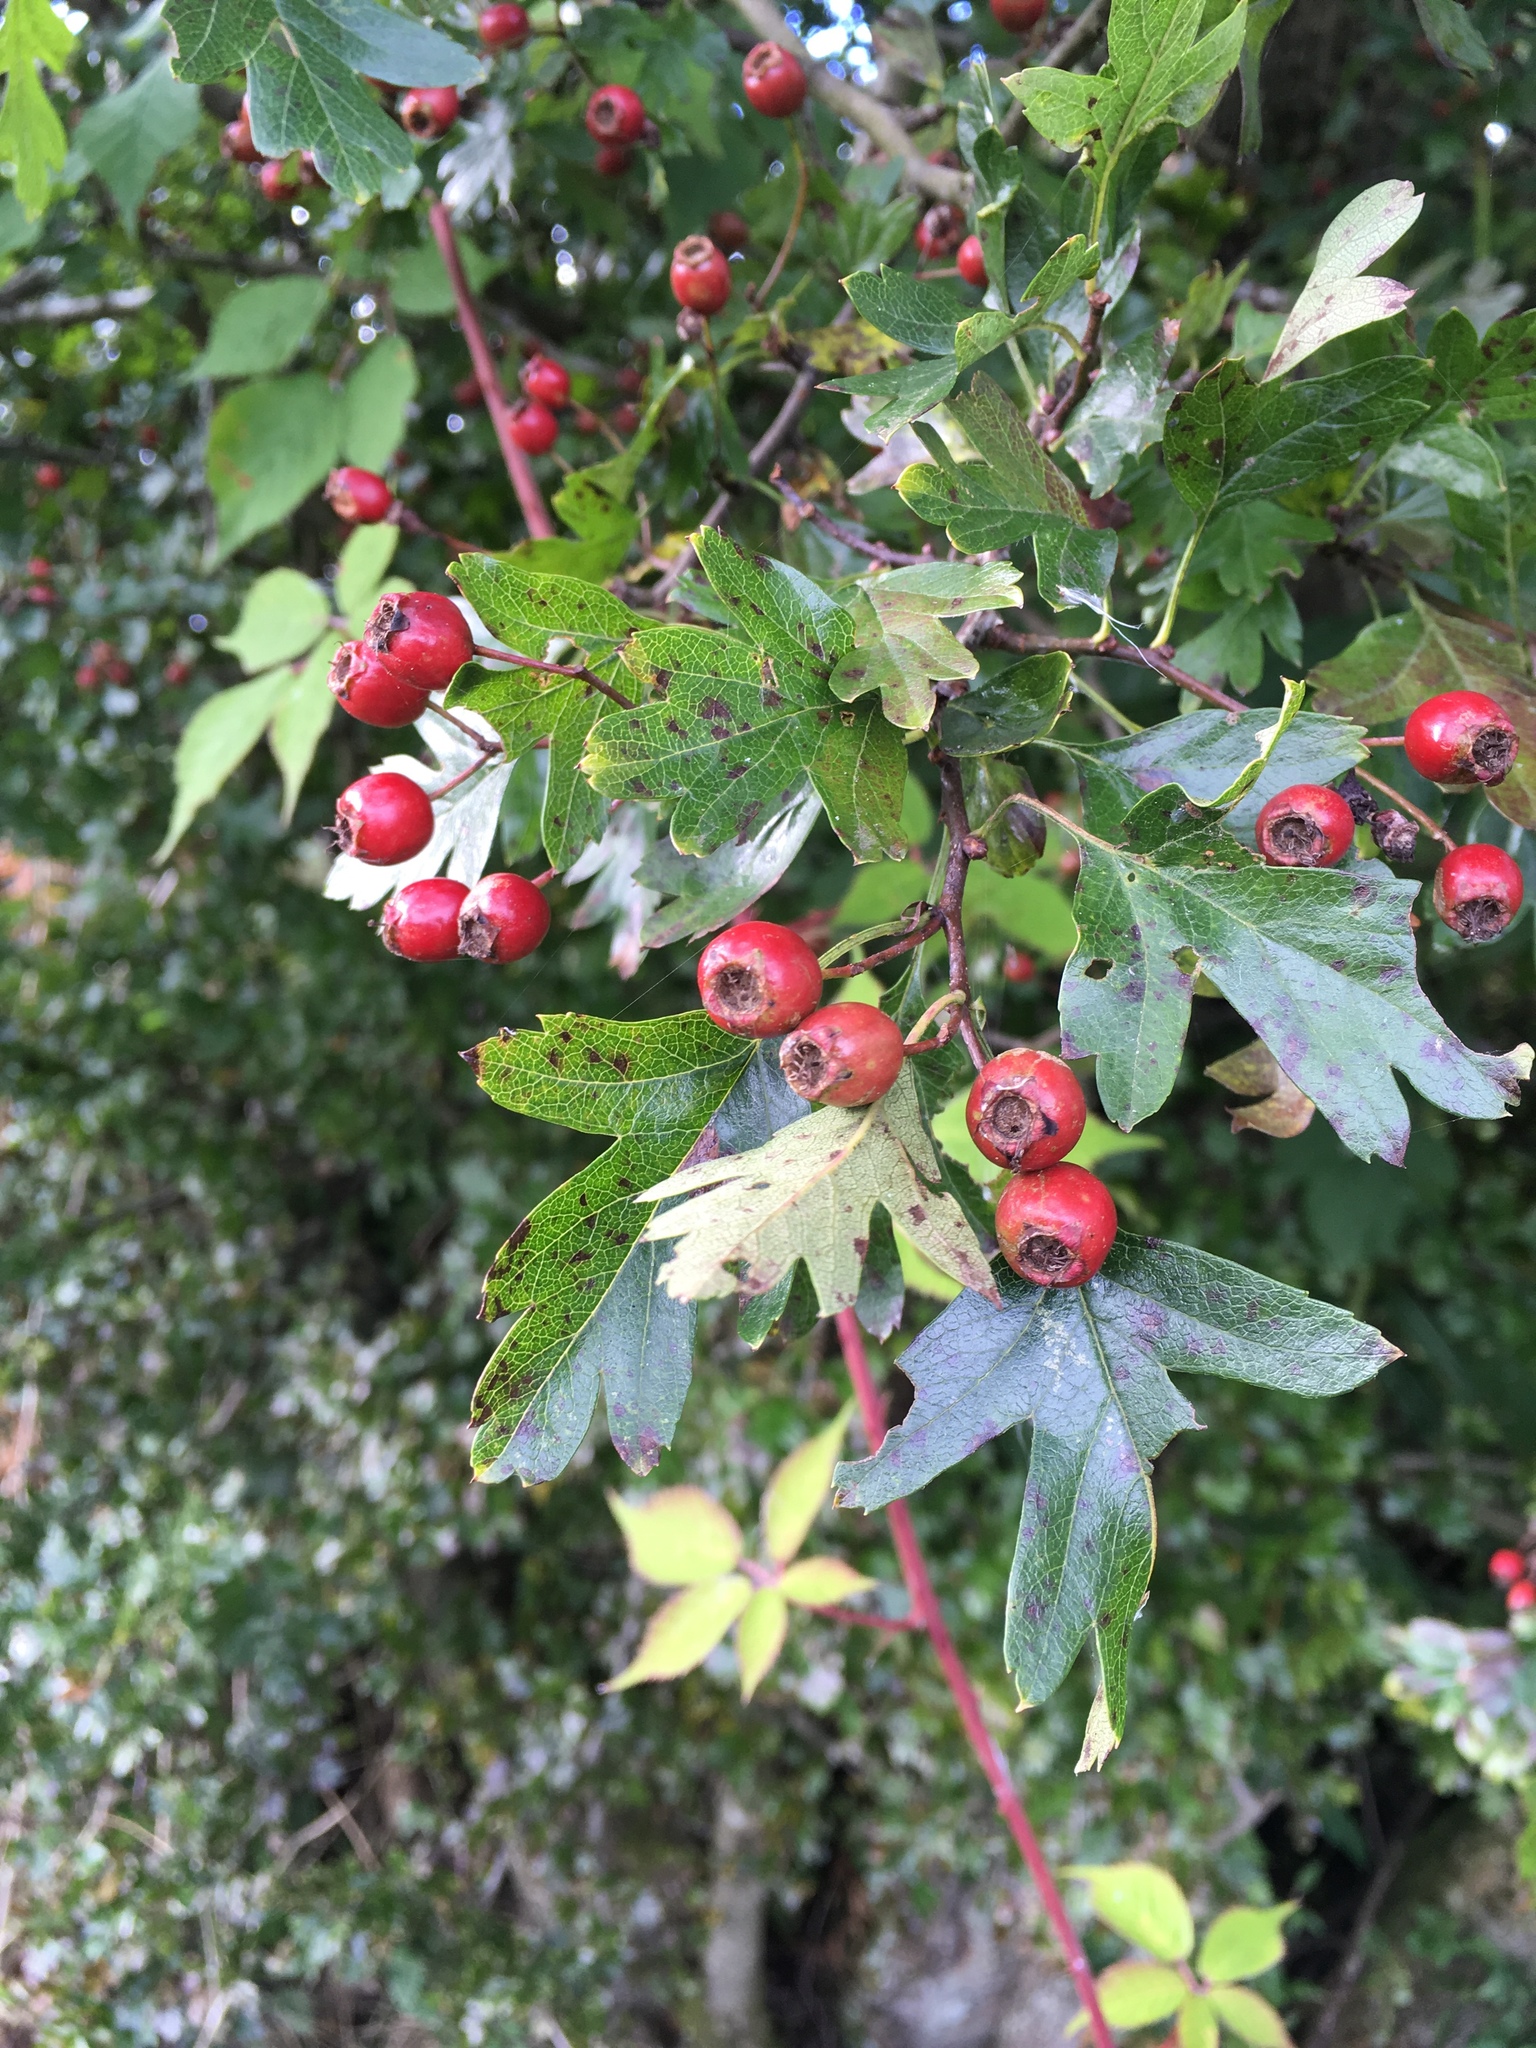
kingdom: Plantae
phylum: Tracheophyta
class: Magnoliopsida
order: Rosales
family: Rosaceae
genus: Crataegus
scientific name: Crataegus monogyna
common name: Hawthorn
